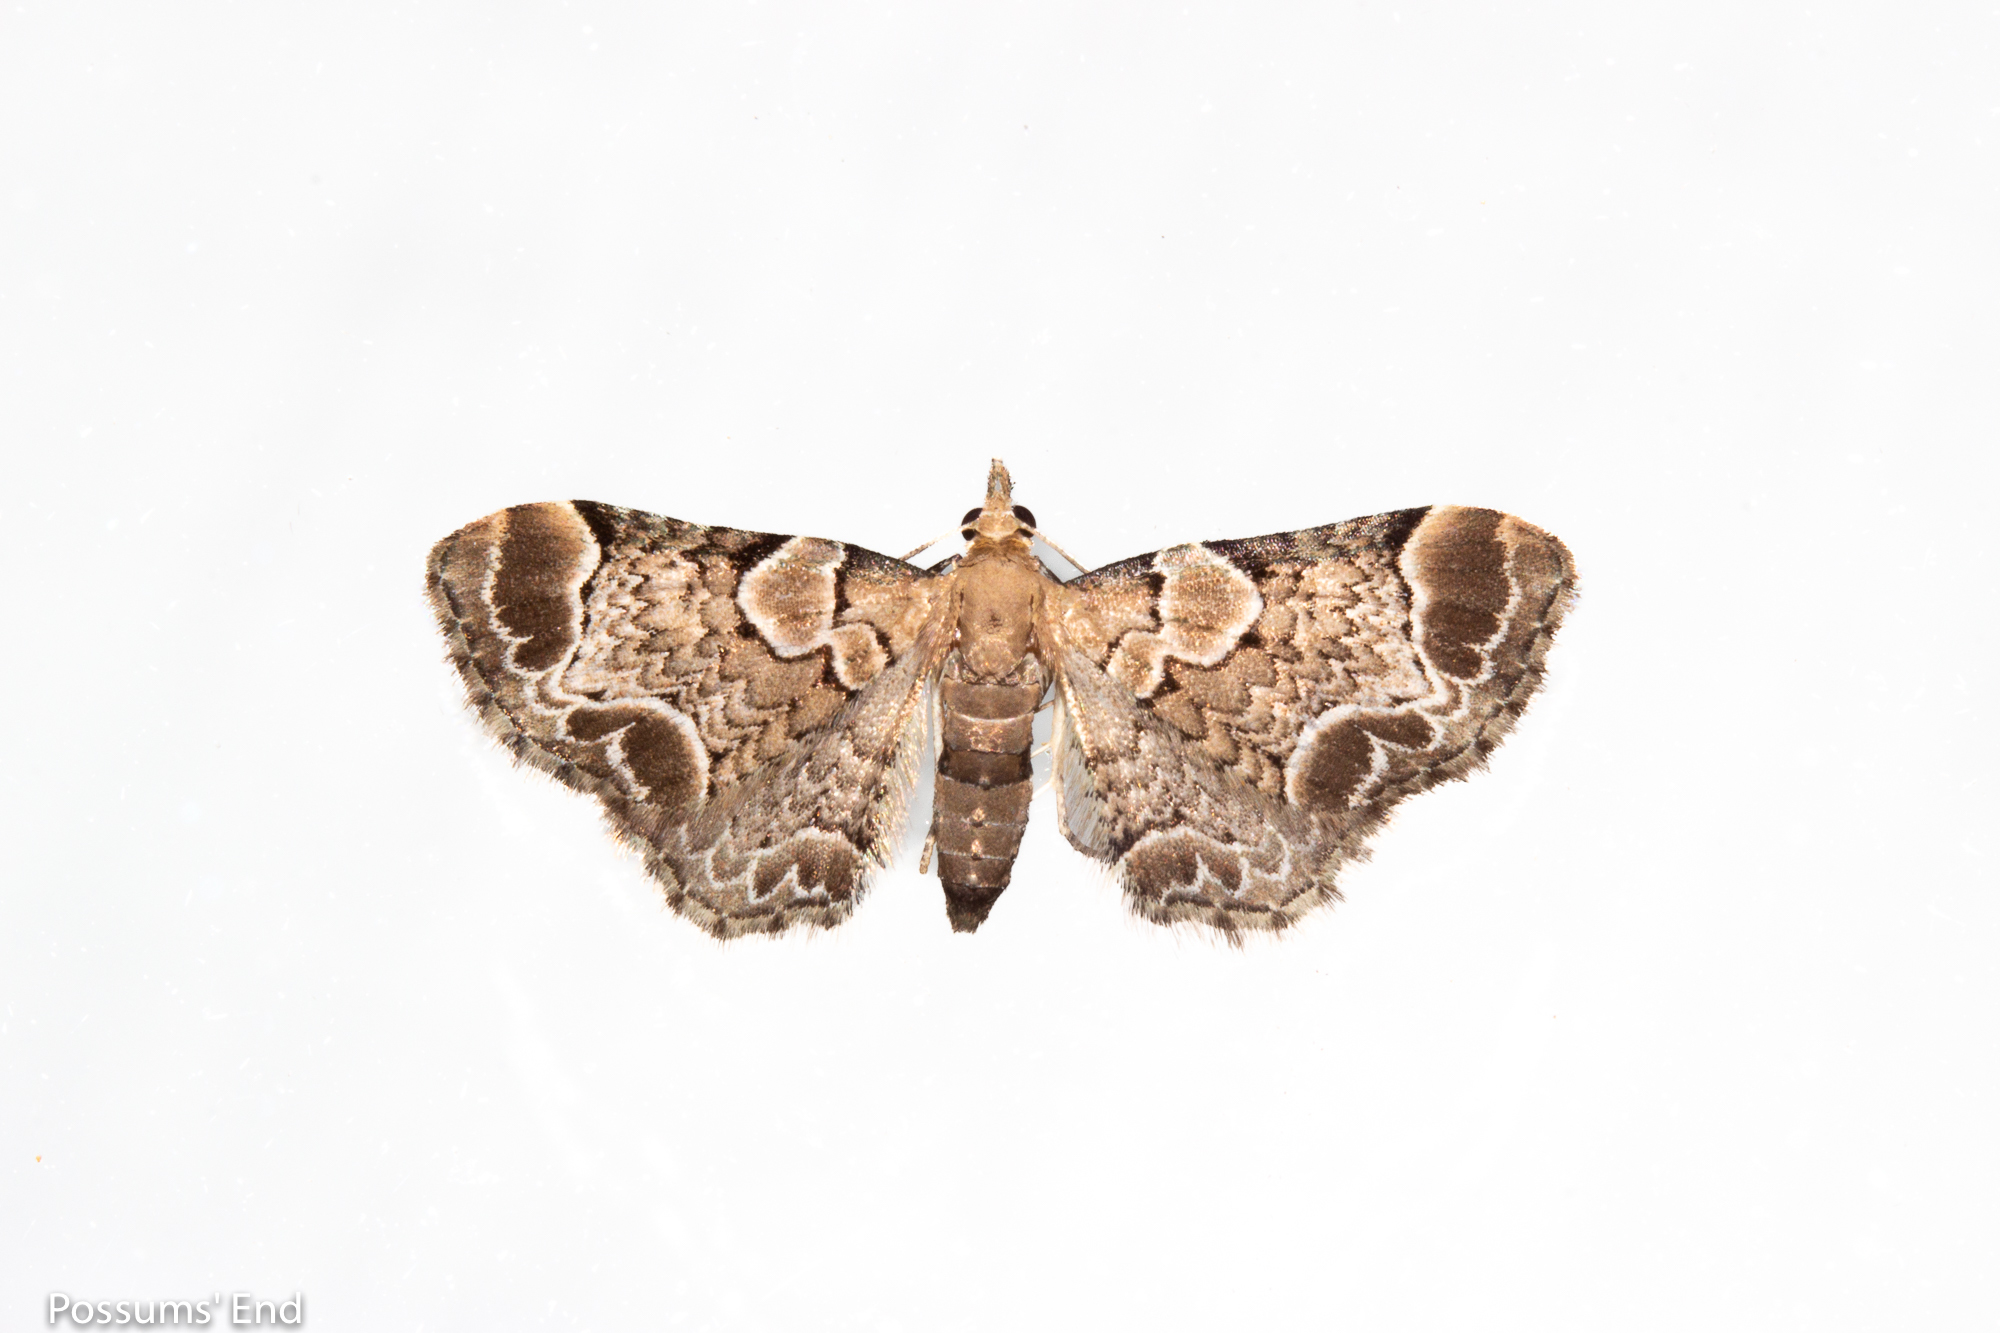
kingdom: Animalia
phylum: Arthropoda
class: Insecta
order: Lepidoptera
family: Geometridae
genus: Chloroclystis
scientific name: Chloroclystis
